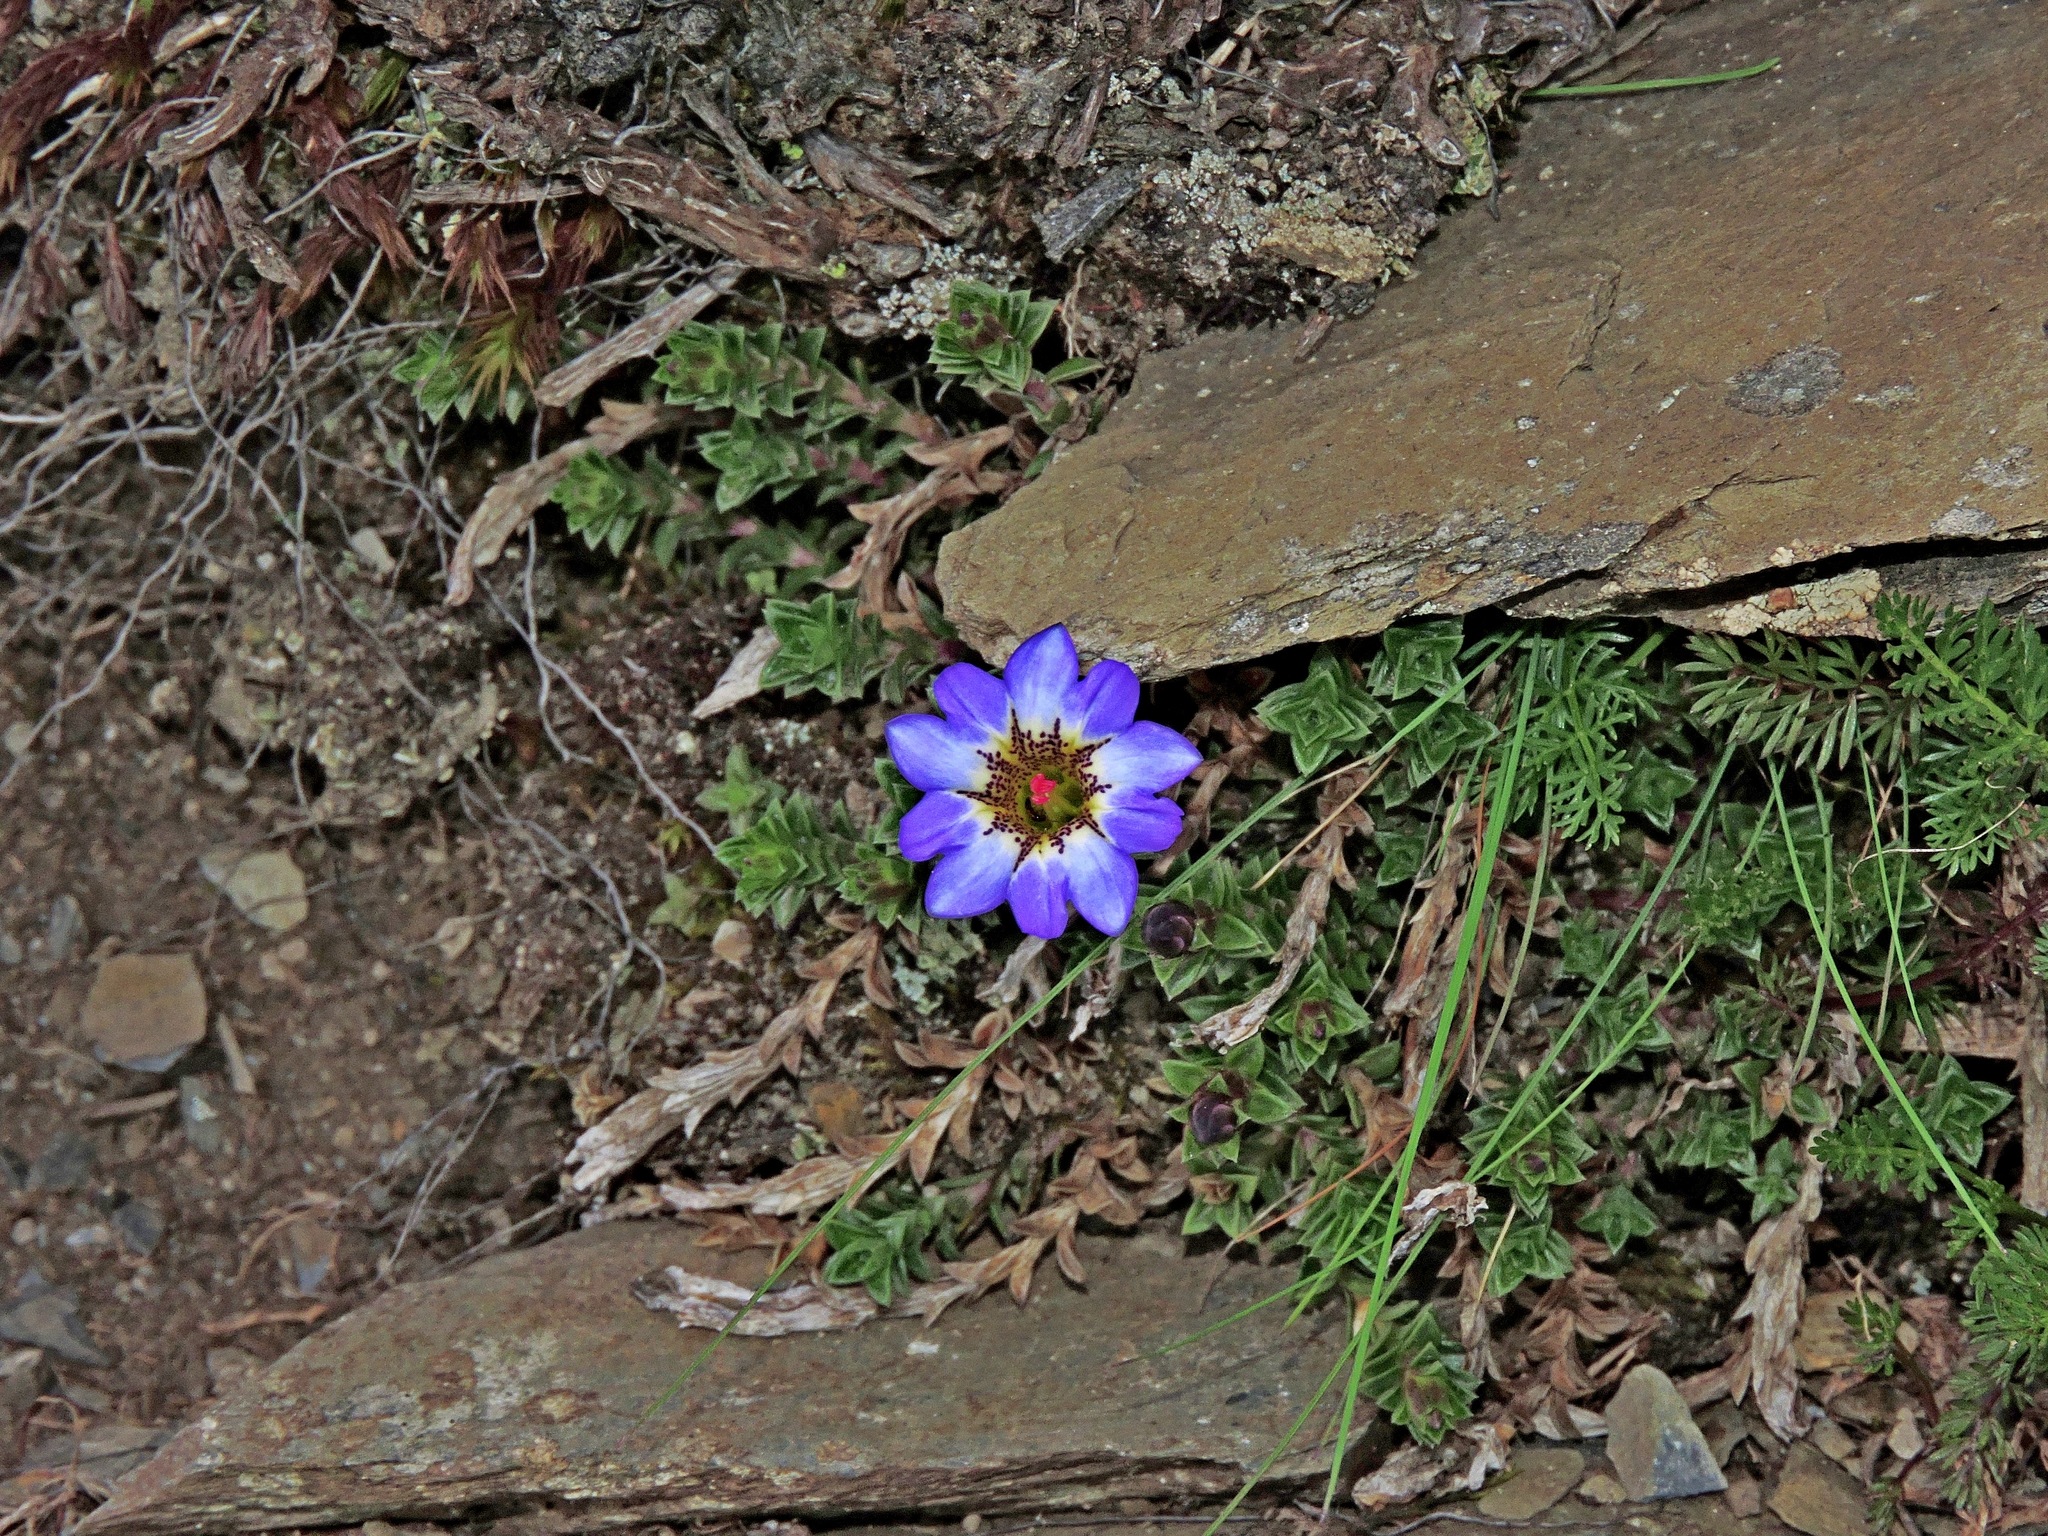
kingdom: Plantae
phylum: Tracheophyta
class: Magnoliopsida
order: Gentianales
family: Gentianaceae
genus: Gentiana
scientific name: Gentiana arisanensis
